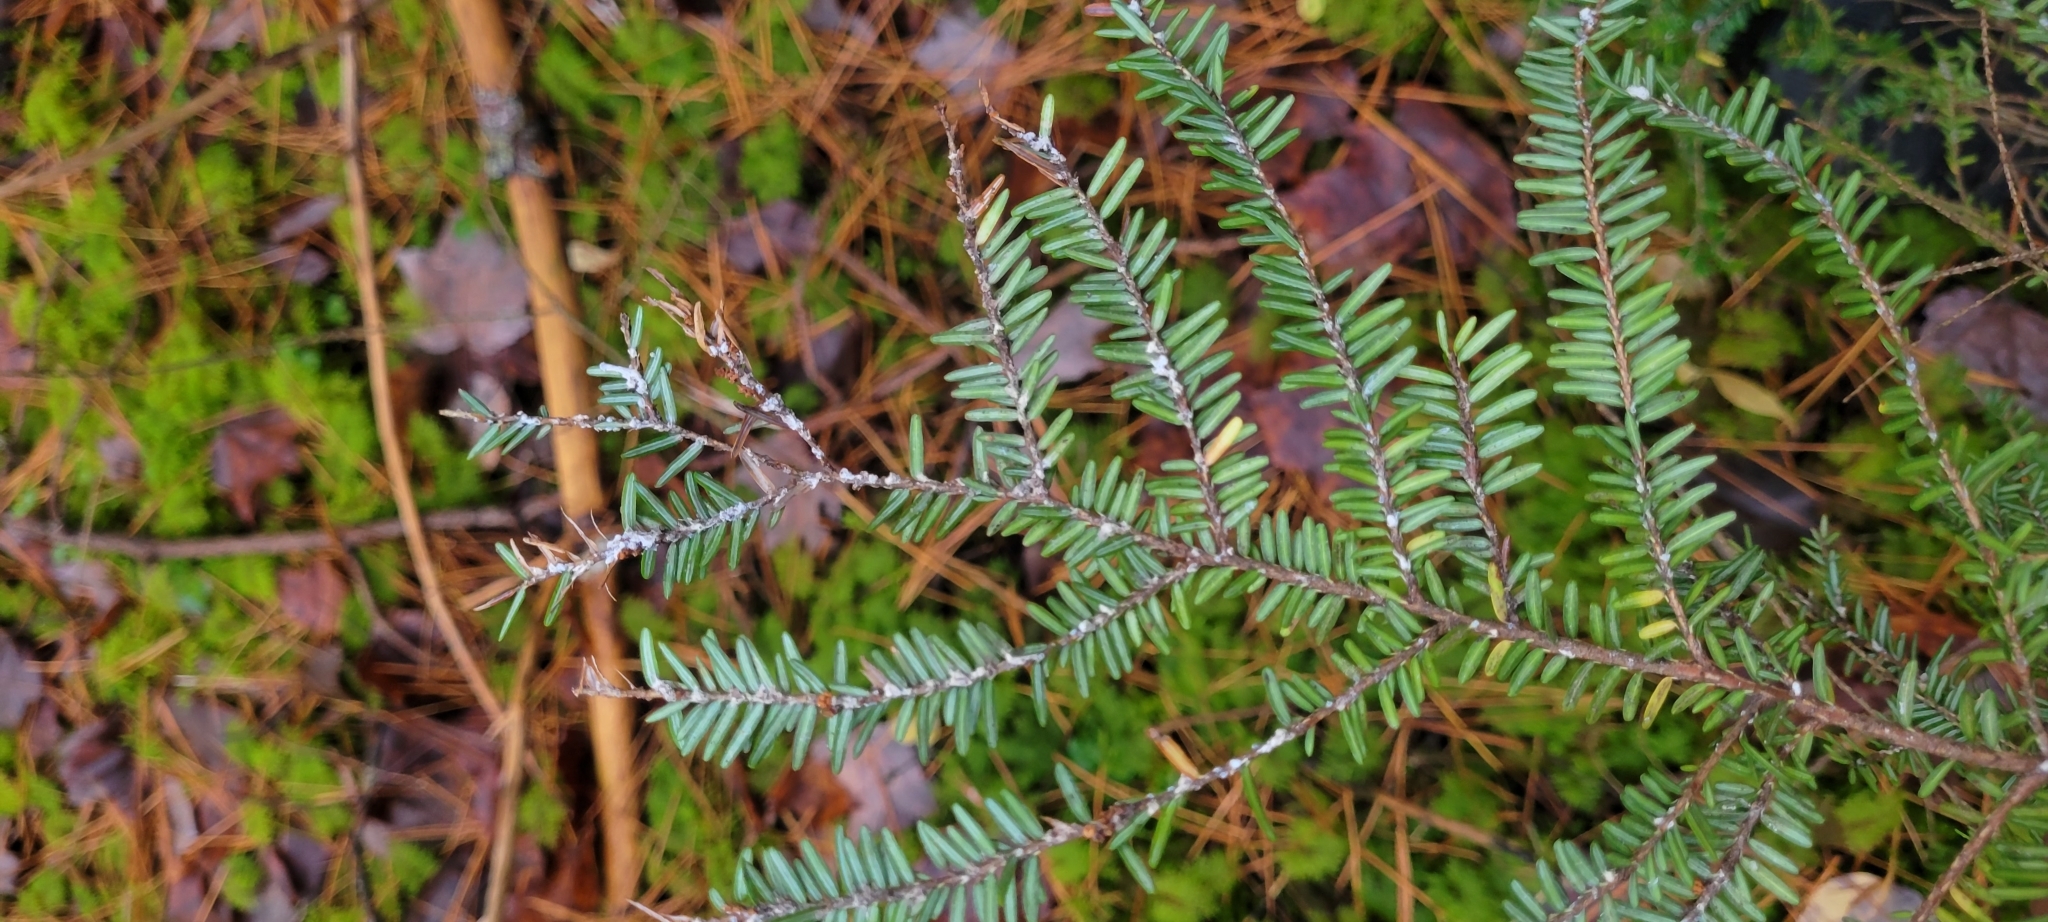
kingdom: Animalia
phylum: Arthropoda
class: Insecta
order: Hemiptera
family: Adelgidae
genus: Adelges
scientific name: Adelges tsugae
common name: Hemlock woolly adelgid
